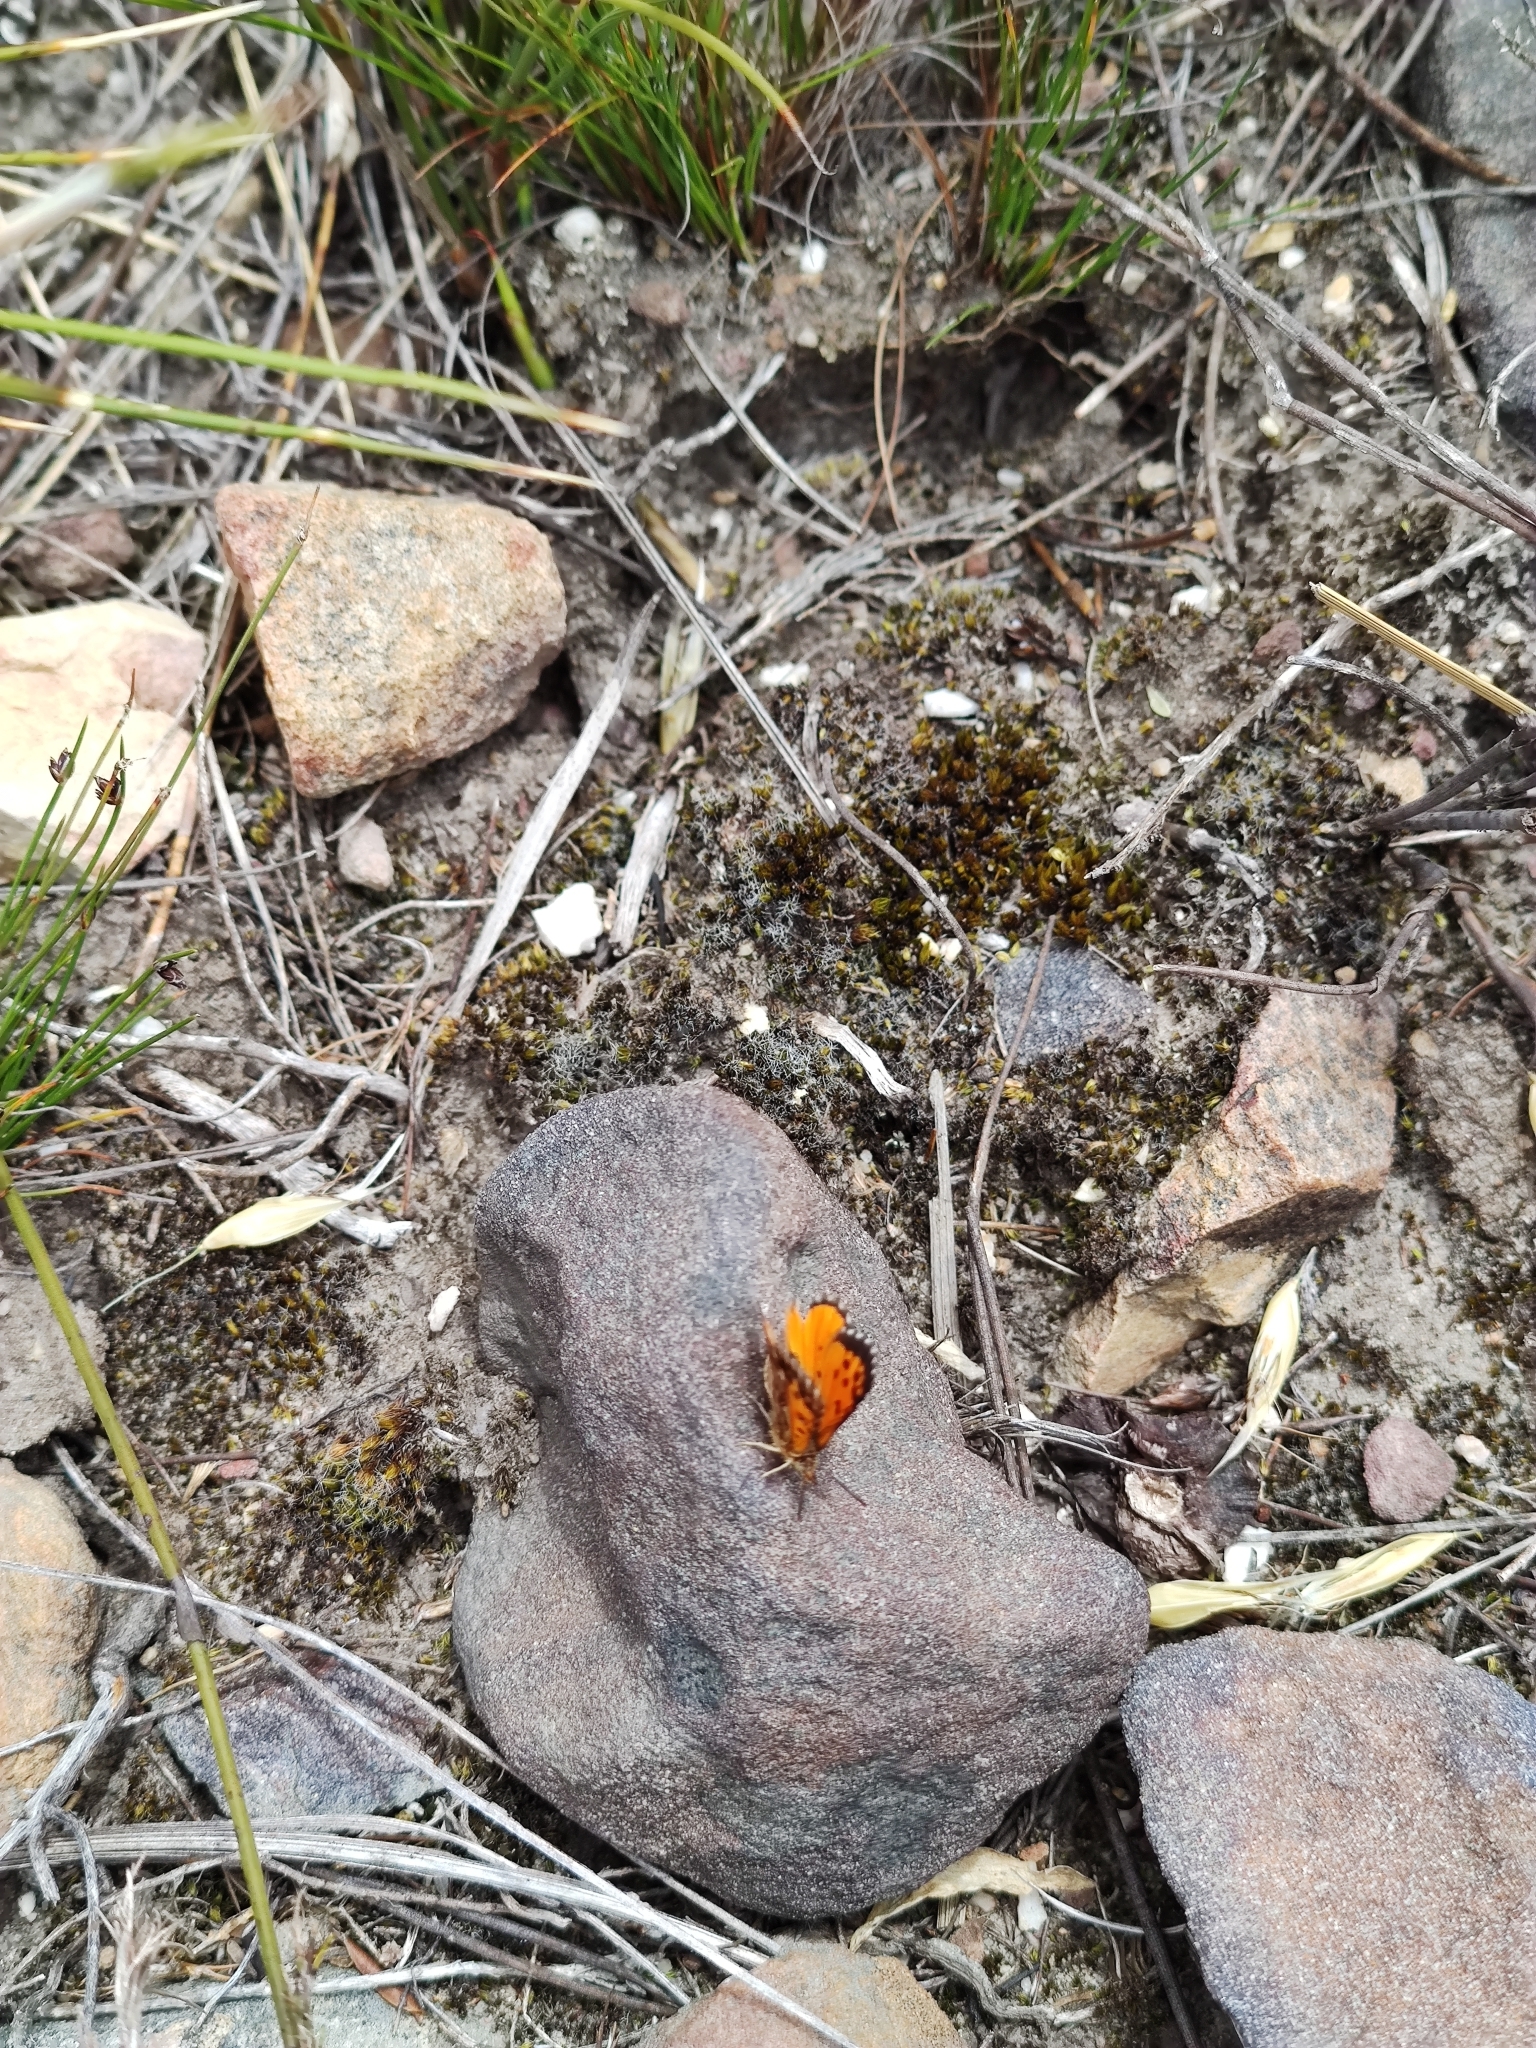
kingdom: Animalia
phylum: Arthropoda
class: Insecta
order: Lepidoptera
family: Lycaenidae
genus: Poecilmitis
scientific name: Poecilmitis endymion
